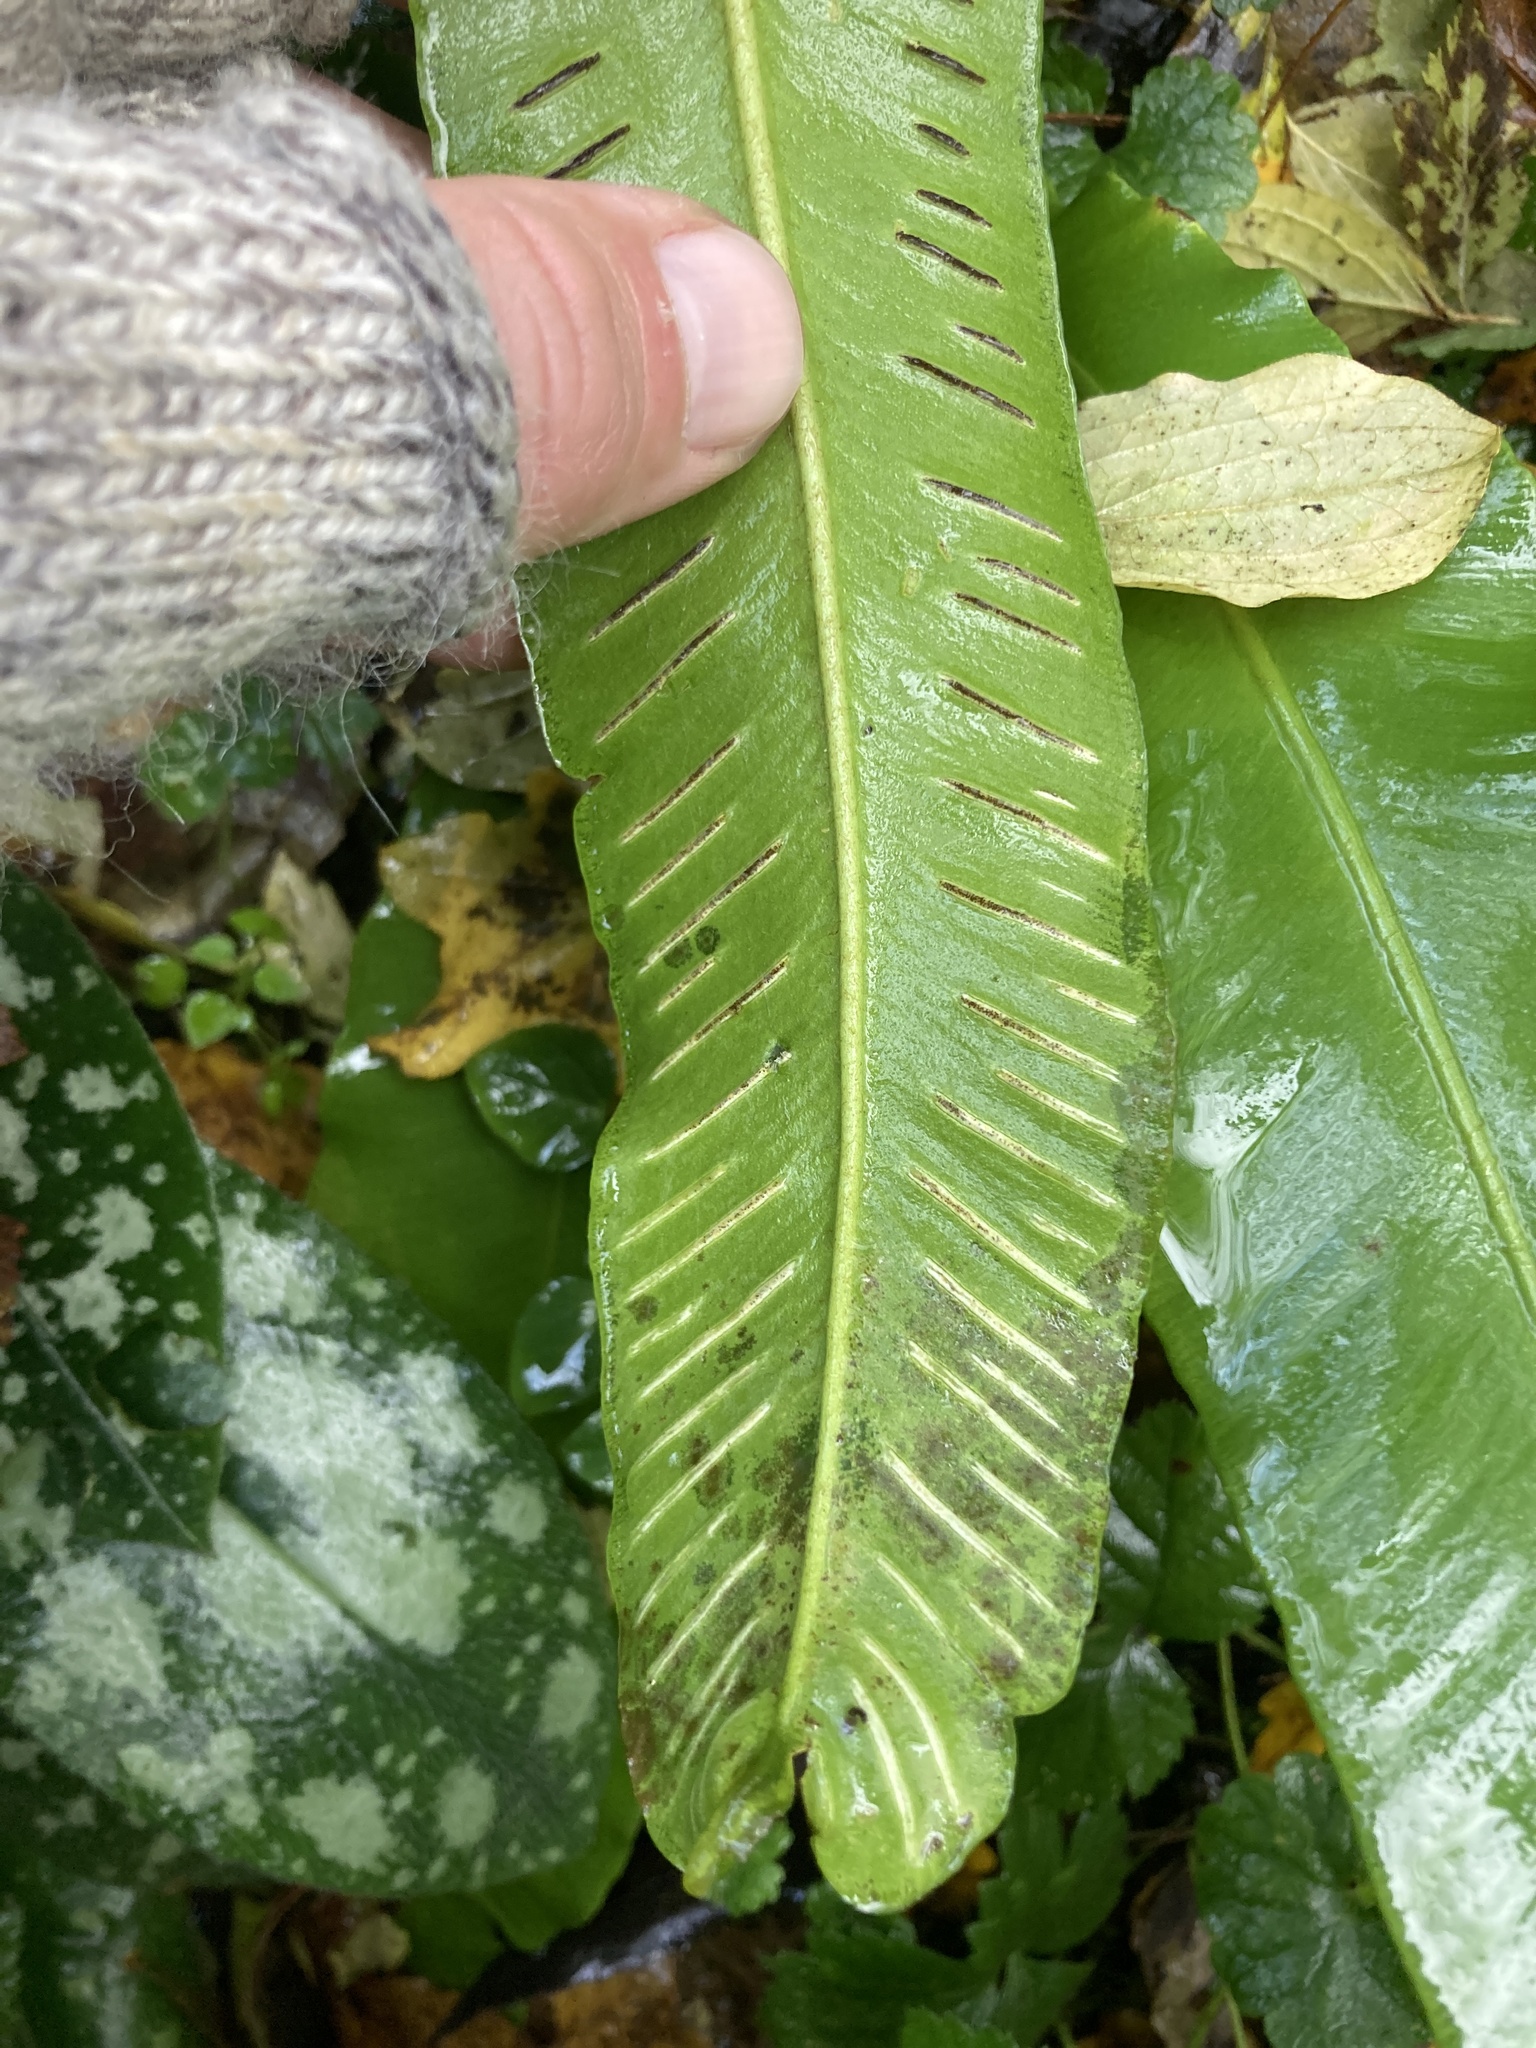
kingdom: Plantae
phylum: Tracheophyta
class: Polypodiopsida
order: Polypodiales
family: Aspleniaceae
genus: Asplenium
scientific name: Asplenium scolopendrium
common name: Hart's-tongue fern
